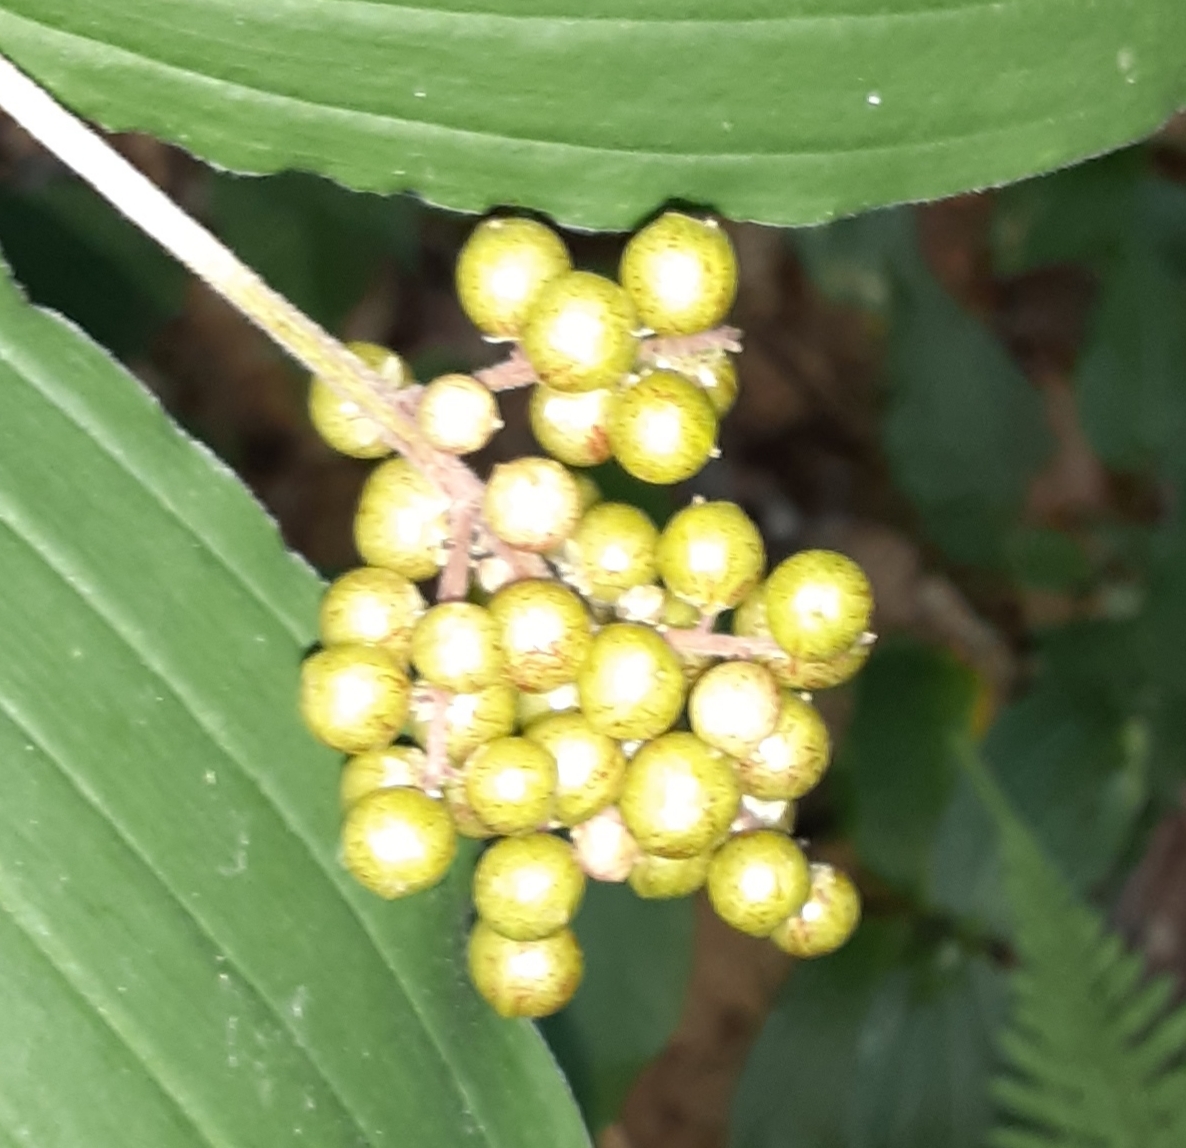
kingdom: Plantae
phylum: Tracheophyta
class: Liliopsida
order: Asparagales
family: Asparagaceae
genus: Maianthemum
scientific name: Maianthemum racemosum
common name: False spikenard
